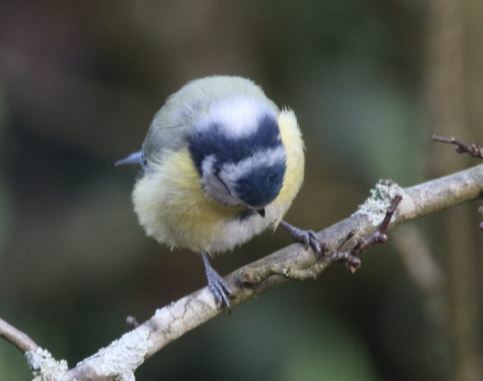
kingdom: Animalia
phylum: Chordata
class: Aves
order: Passeriformes
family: Paridae
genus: Cyanistes
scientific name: Cyanistes caeruleus
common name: Eurasian blue tit
